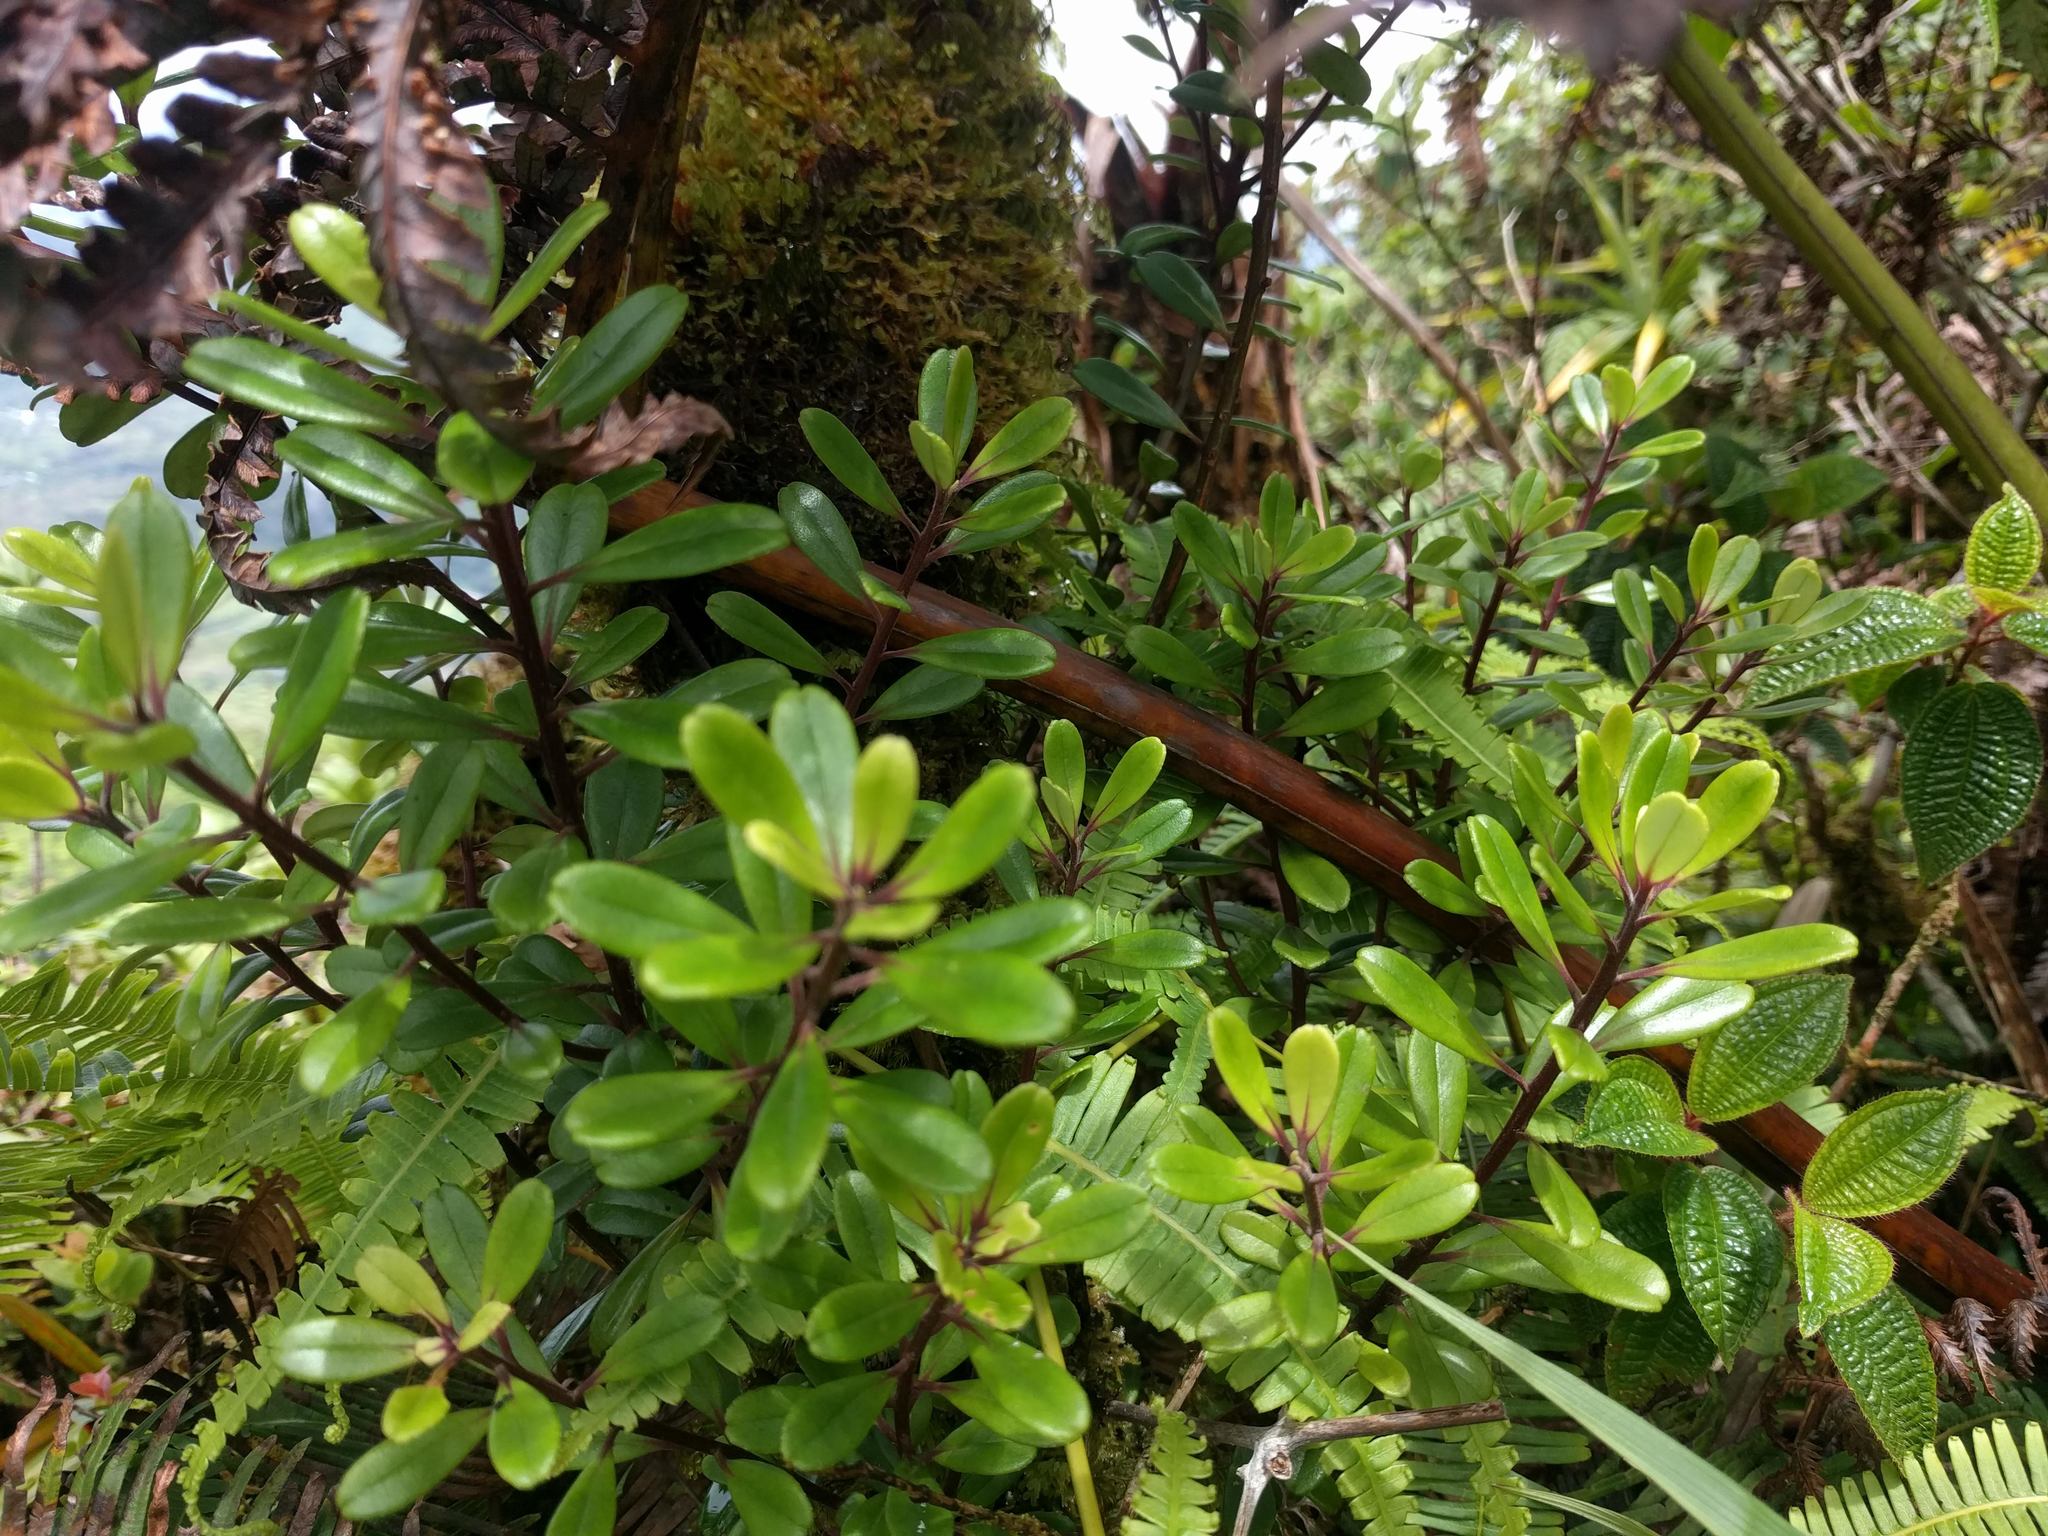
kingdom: Plantae
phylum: Tracheophyta
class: Magnoliopsida
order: Ericales
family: Primulaceae
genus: Myrsine
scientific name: Myrsine sandwicensis
